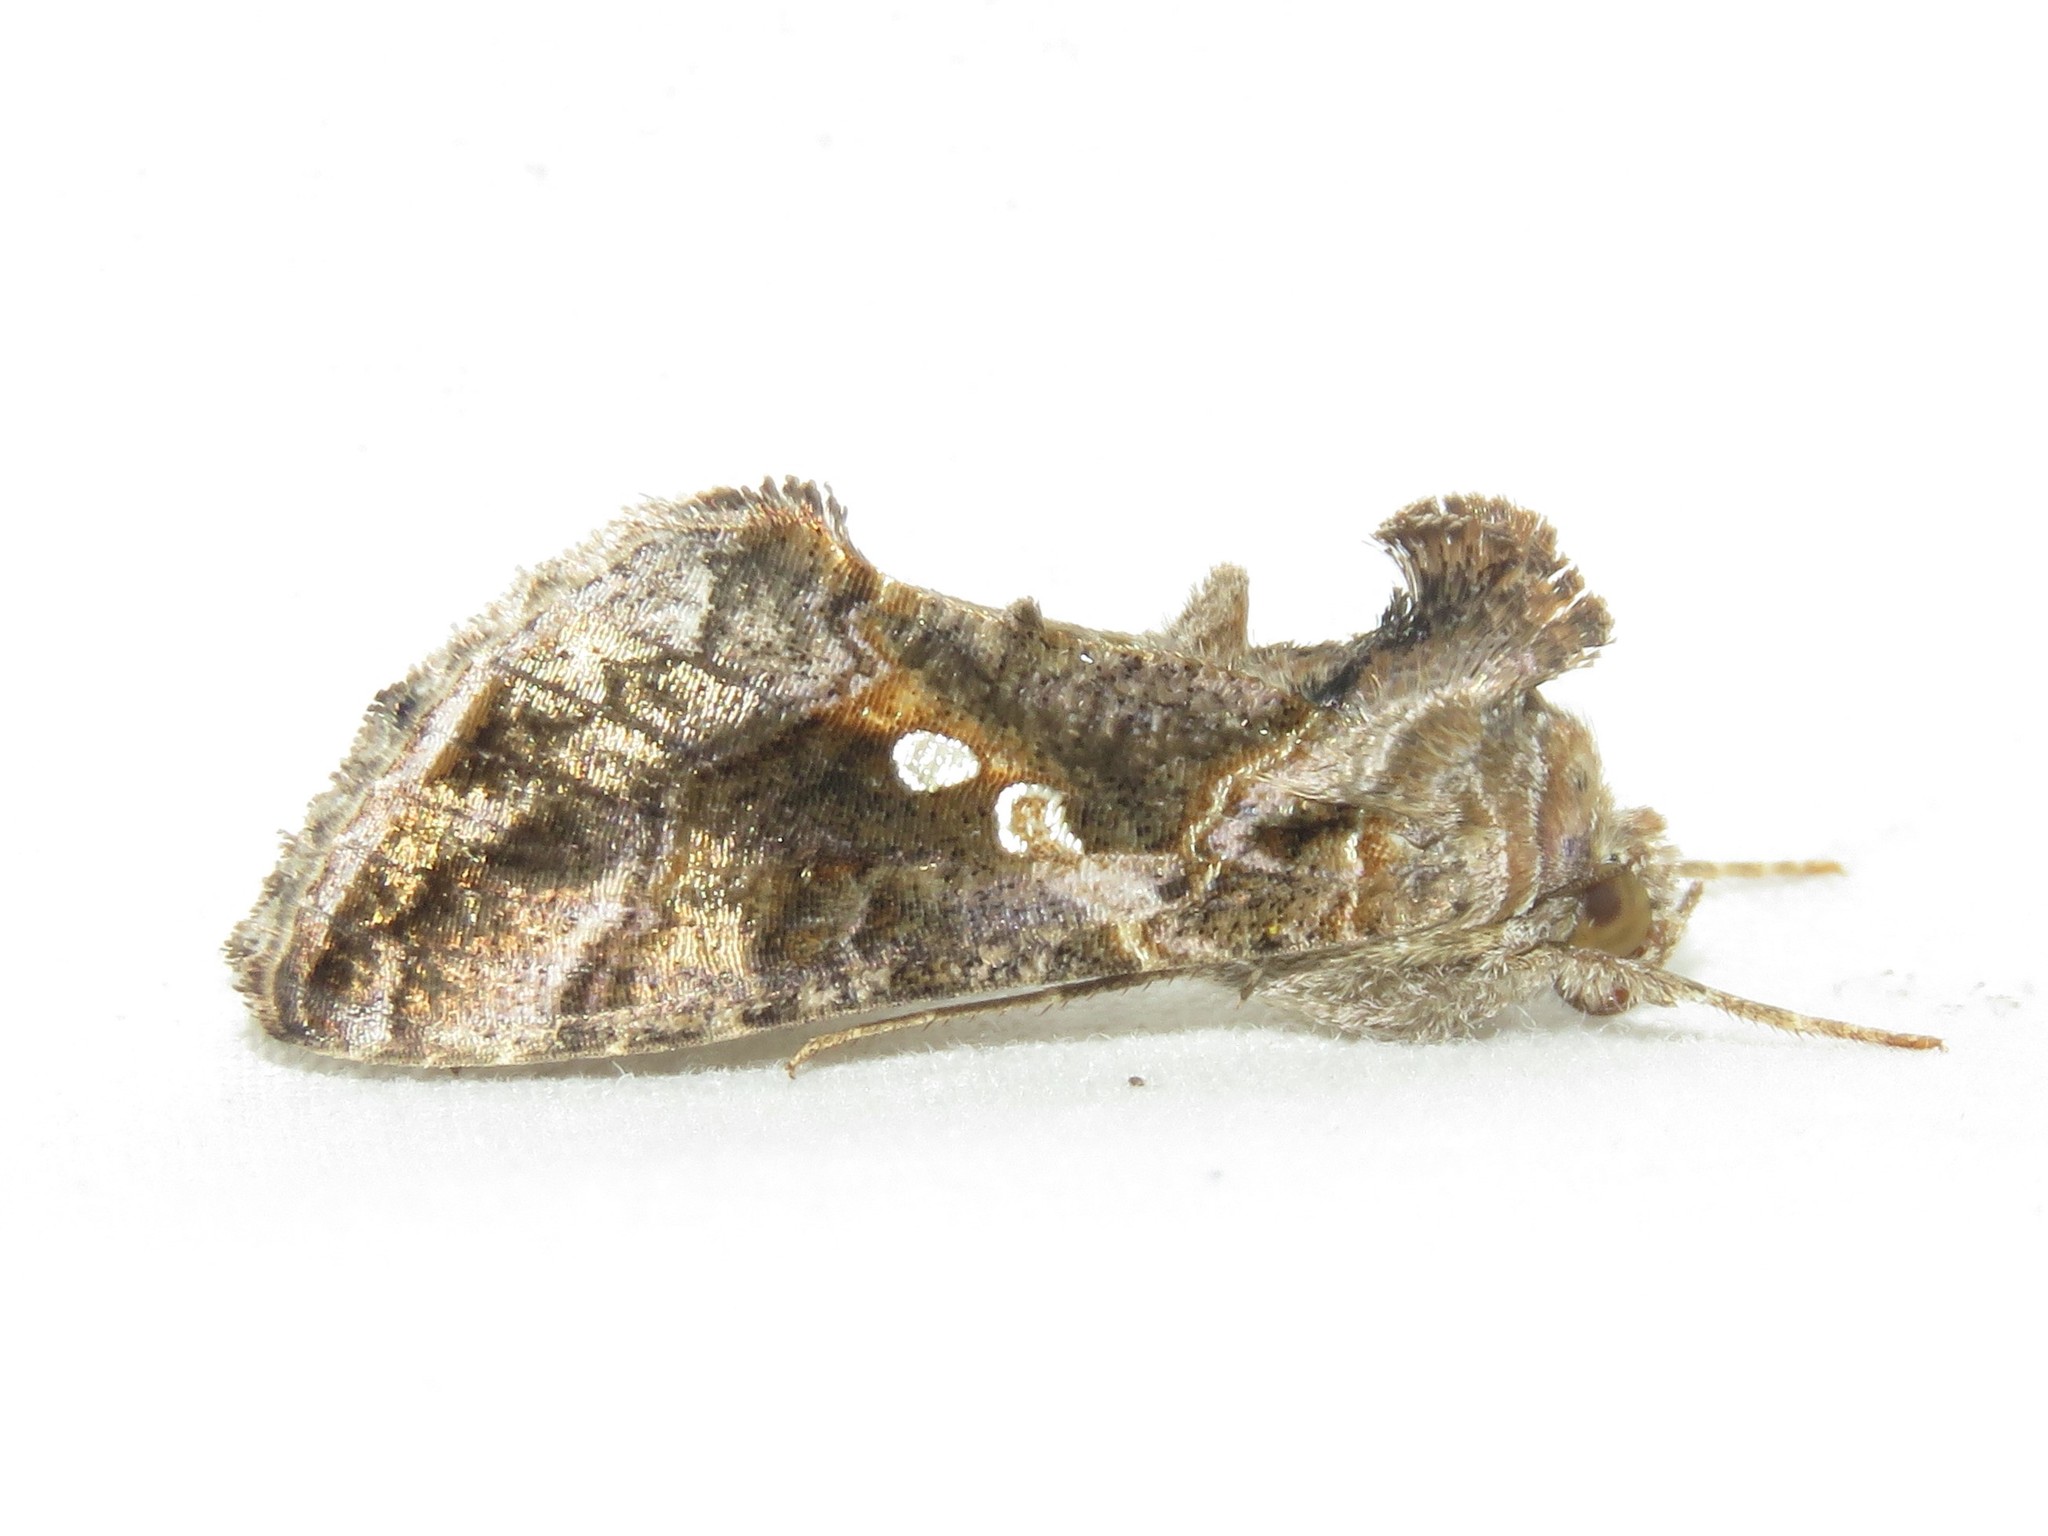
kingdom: Animalia
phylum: Arthropoda
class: Insecta
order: Lepidoptera
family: Noctuidae
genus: Chrysodeixis
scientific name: Chrysodeixis includens
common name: Cutworm moth
